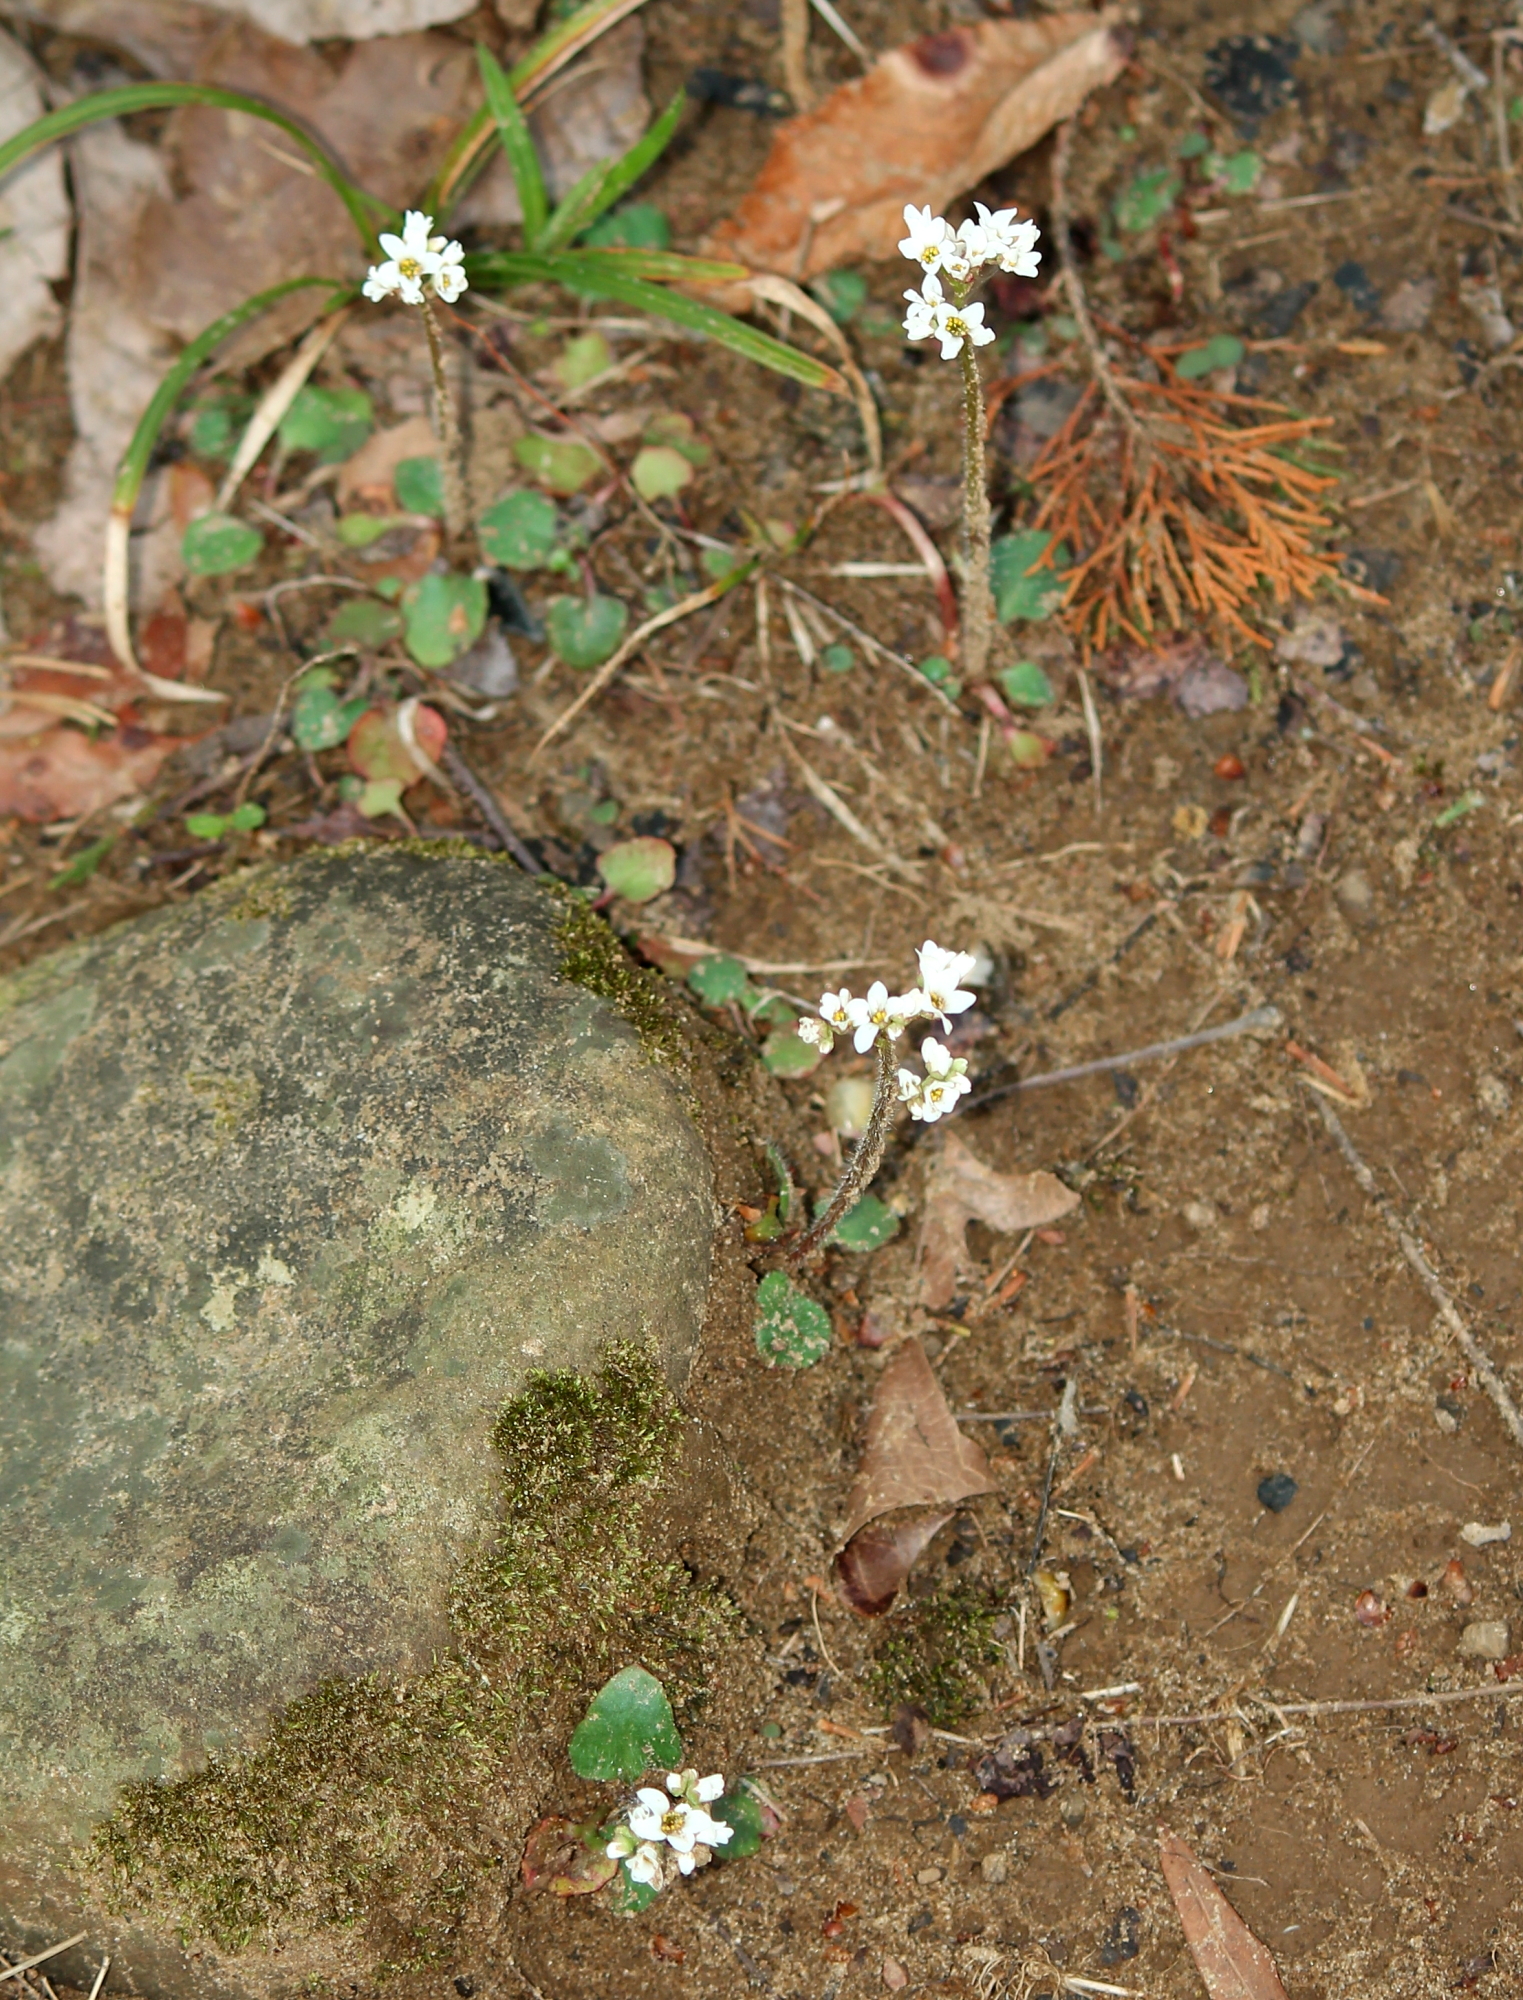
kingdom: Plantae
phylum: Tracheophyta
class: Magnoliopsida
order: Saxifragales
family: Saxifragaceae
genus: Micranthes
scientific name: Micranthes palmeri
